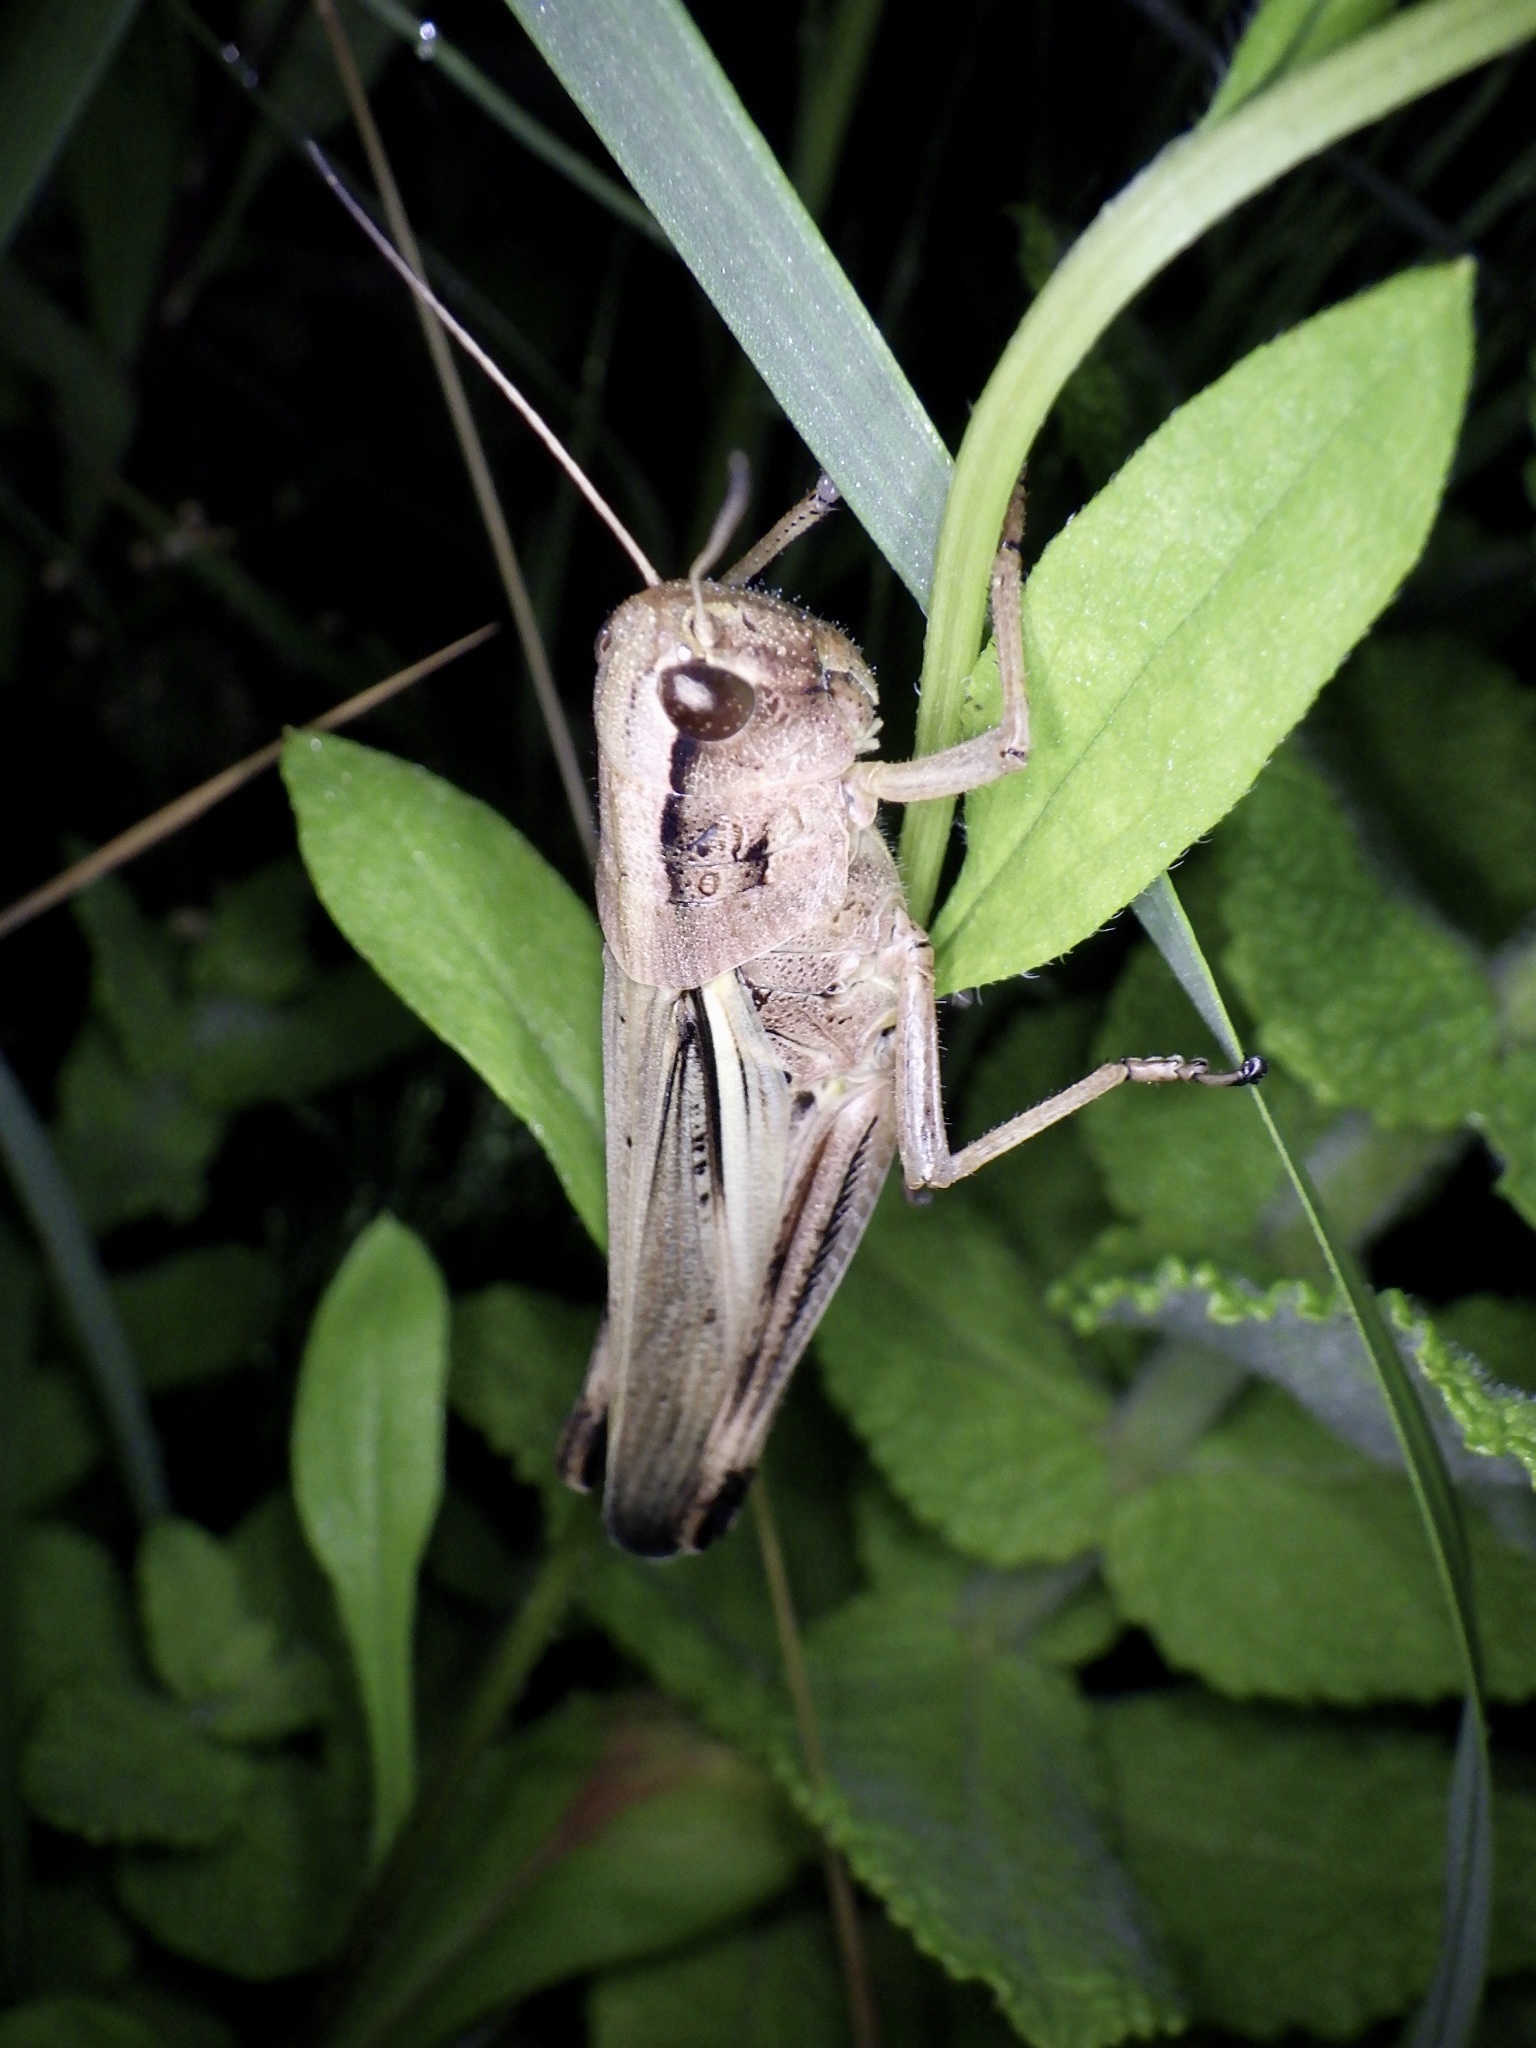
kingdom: Animalia
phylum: Arthropoda
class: Insecta
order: Orthoptera
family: Acrididae
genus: Stethophyma
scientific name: Stethophyma magister
